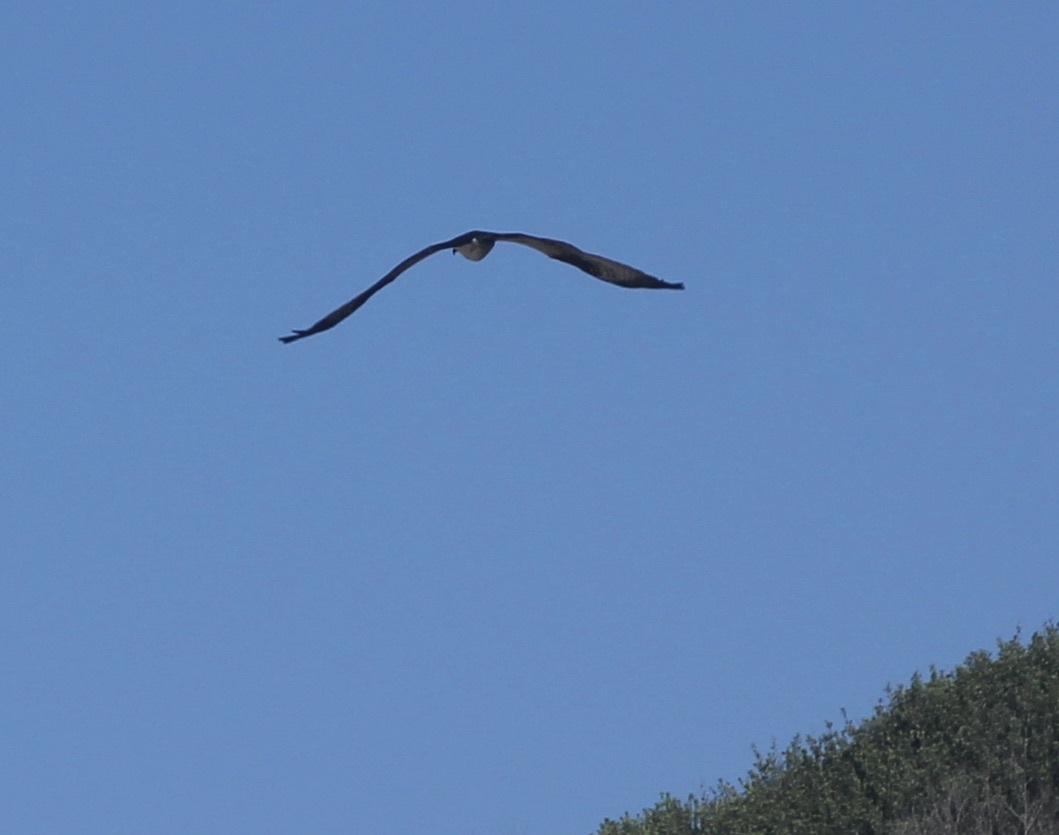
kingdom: Animalia
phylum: Chordata
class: Aves
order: Accipitriformes
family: Pandionidae
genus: Pandion
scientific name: Pandion haliaetus
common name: Osprey
